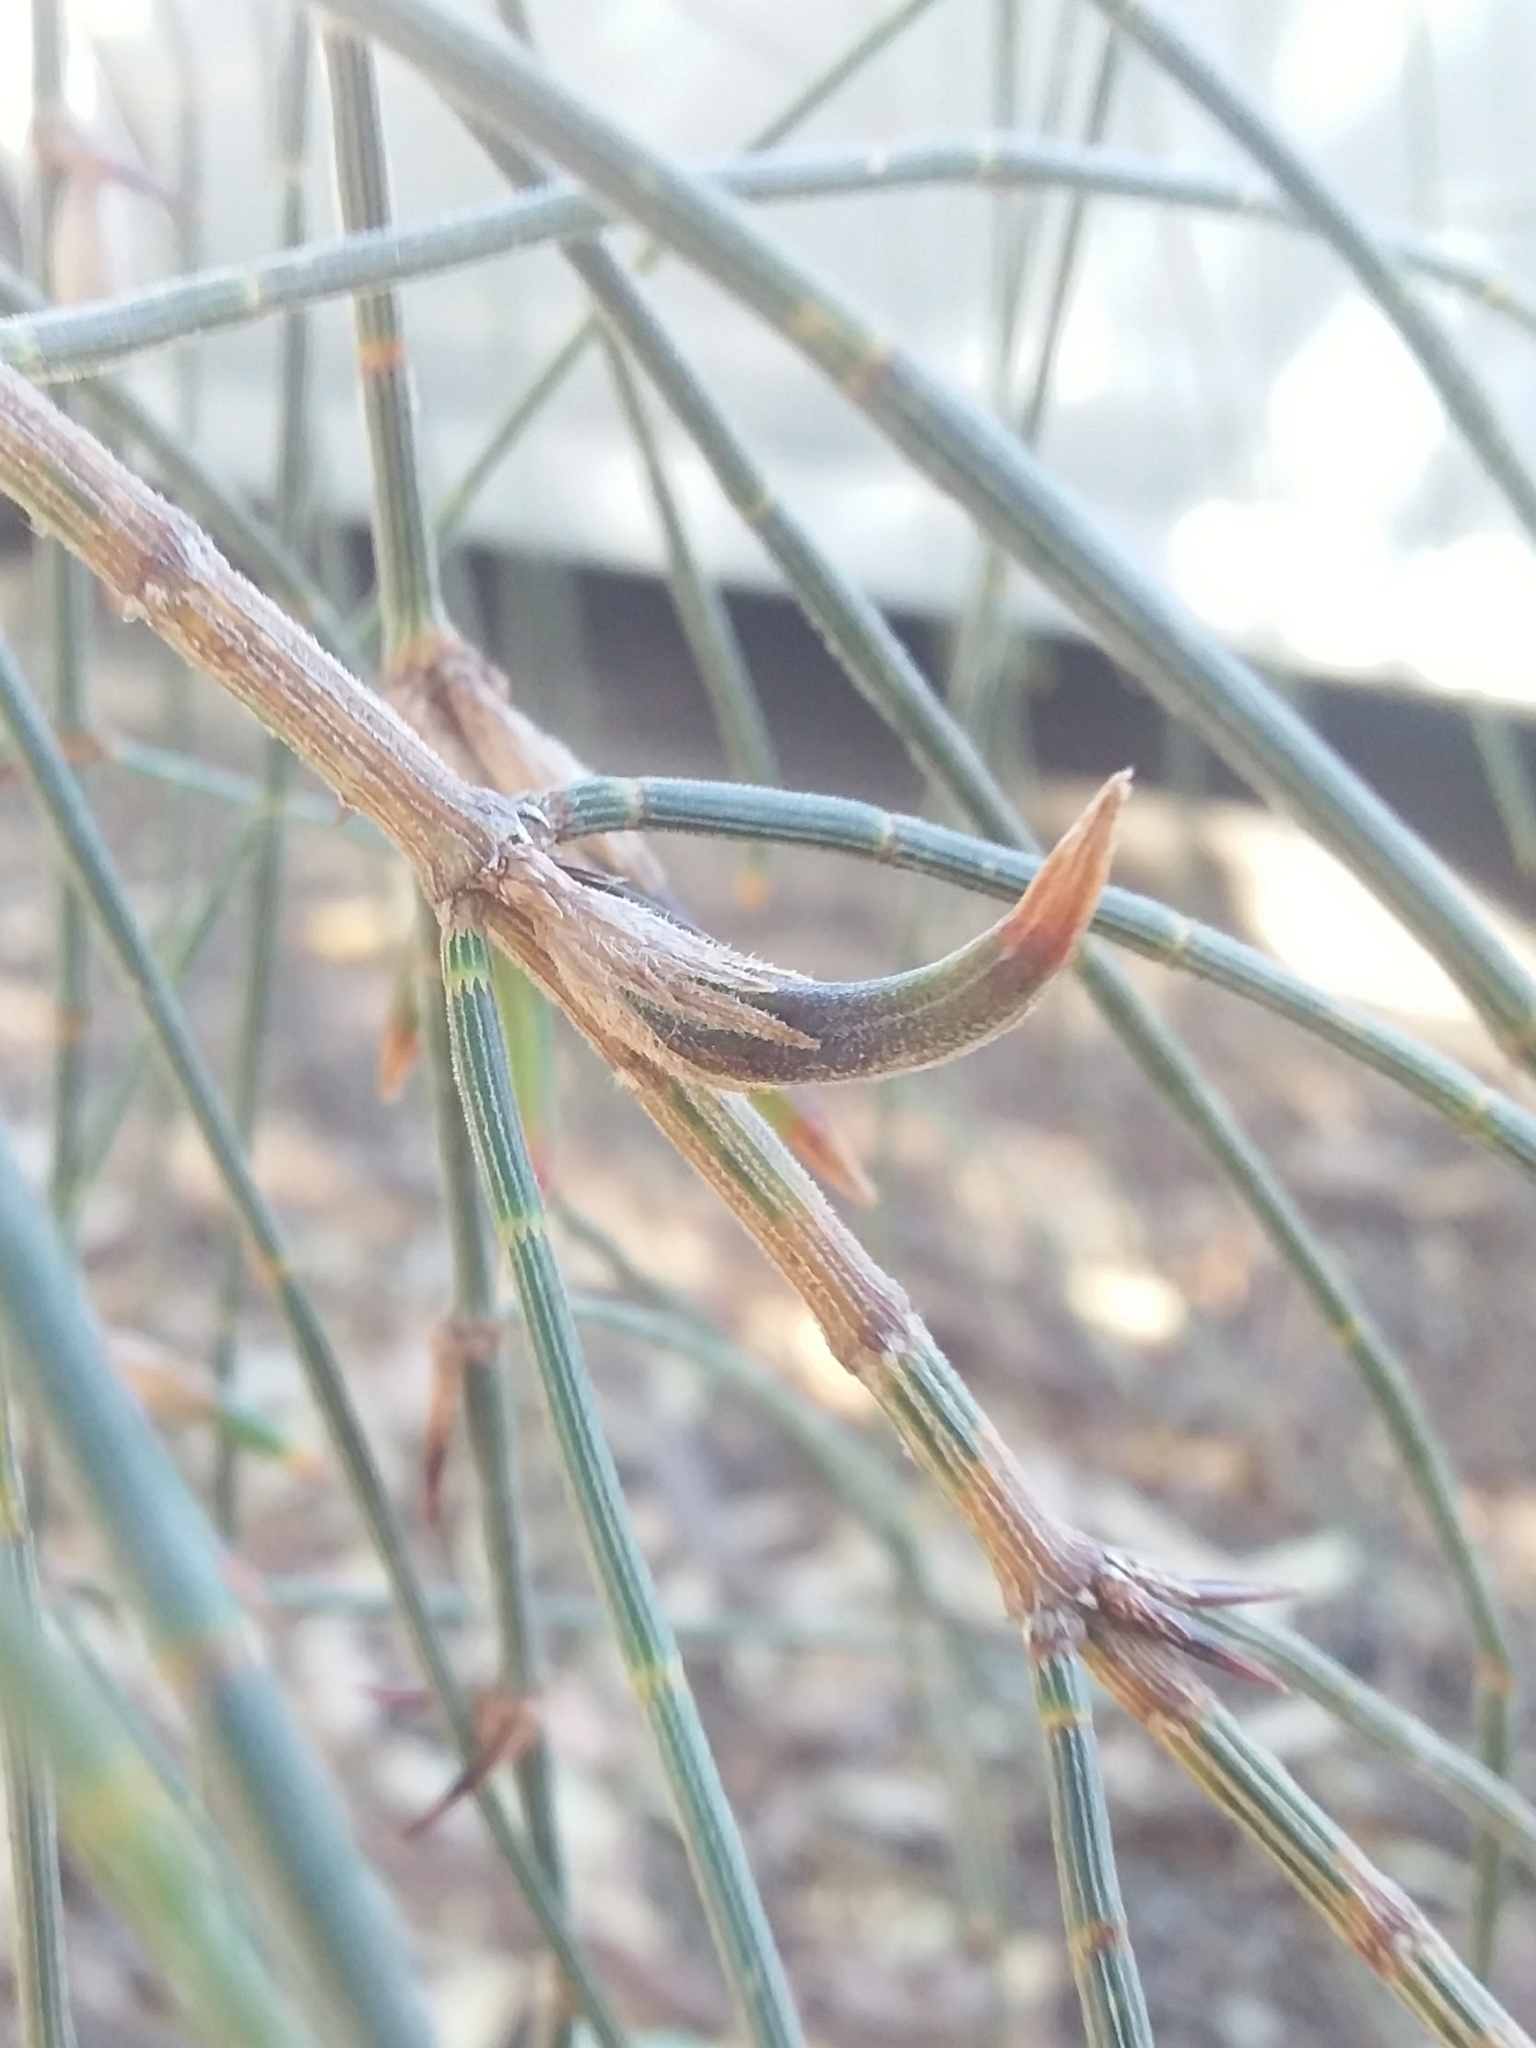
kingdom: Animalia
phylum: Arthropoda
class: Insecta
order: Hemiptera
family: Eriococcidae
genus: Cylindrococcus
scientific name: Cylindrococcus casuarinae
